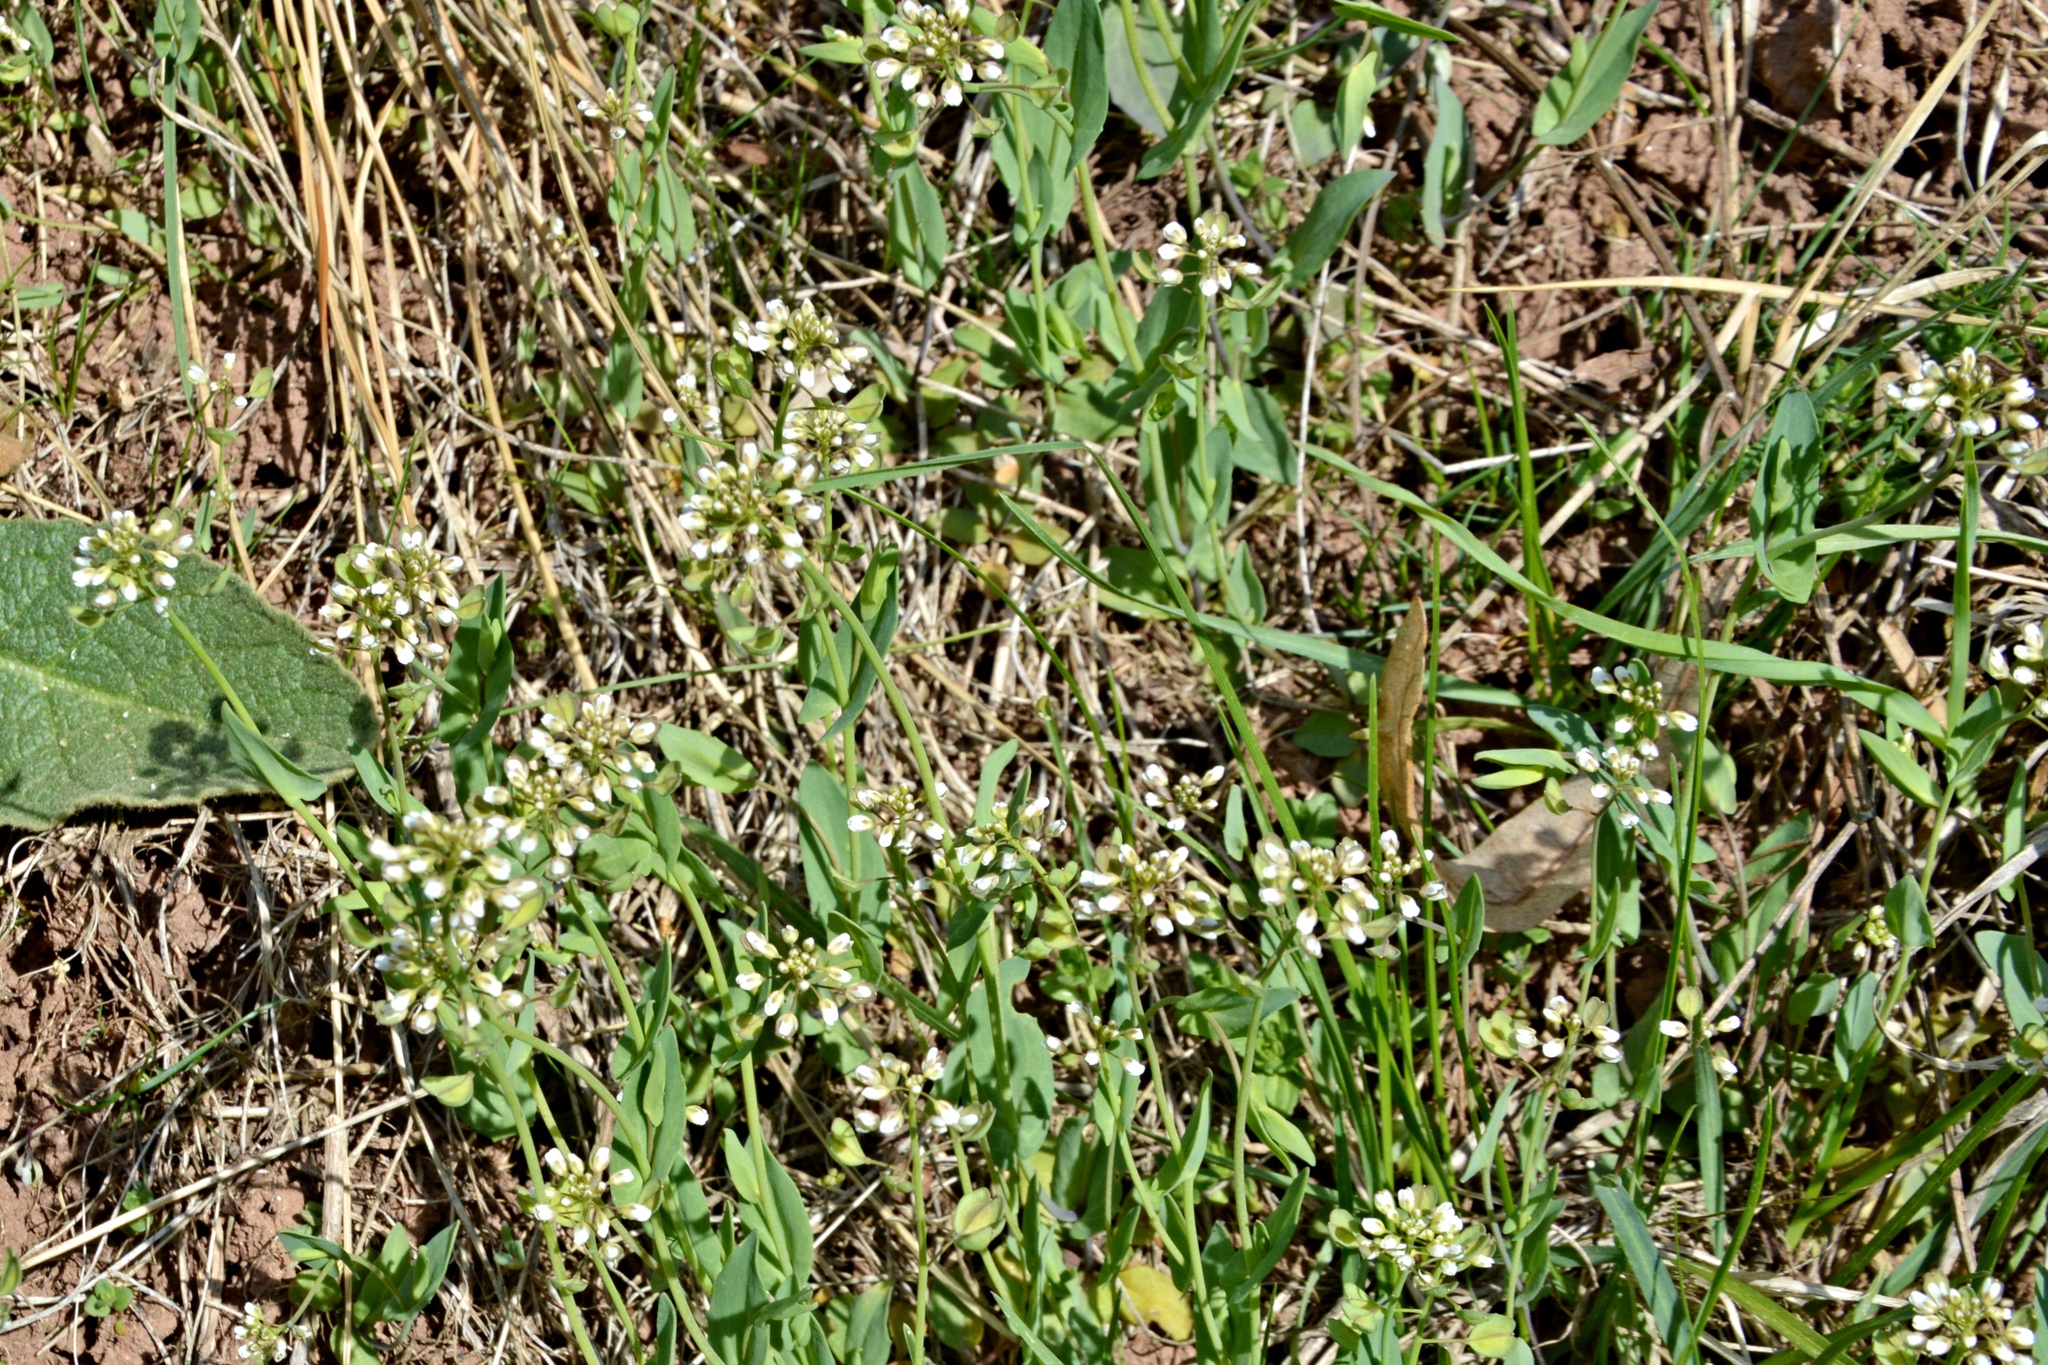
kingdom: Plantae
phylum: Tracheophyta
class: Magnoliopsida
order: Brassicales
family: Brassicaceae
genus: Noccaea
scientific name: Noccaea perfoliata
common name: Perfoliate pennycress
